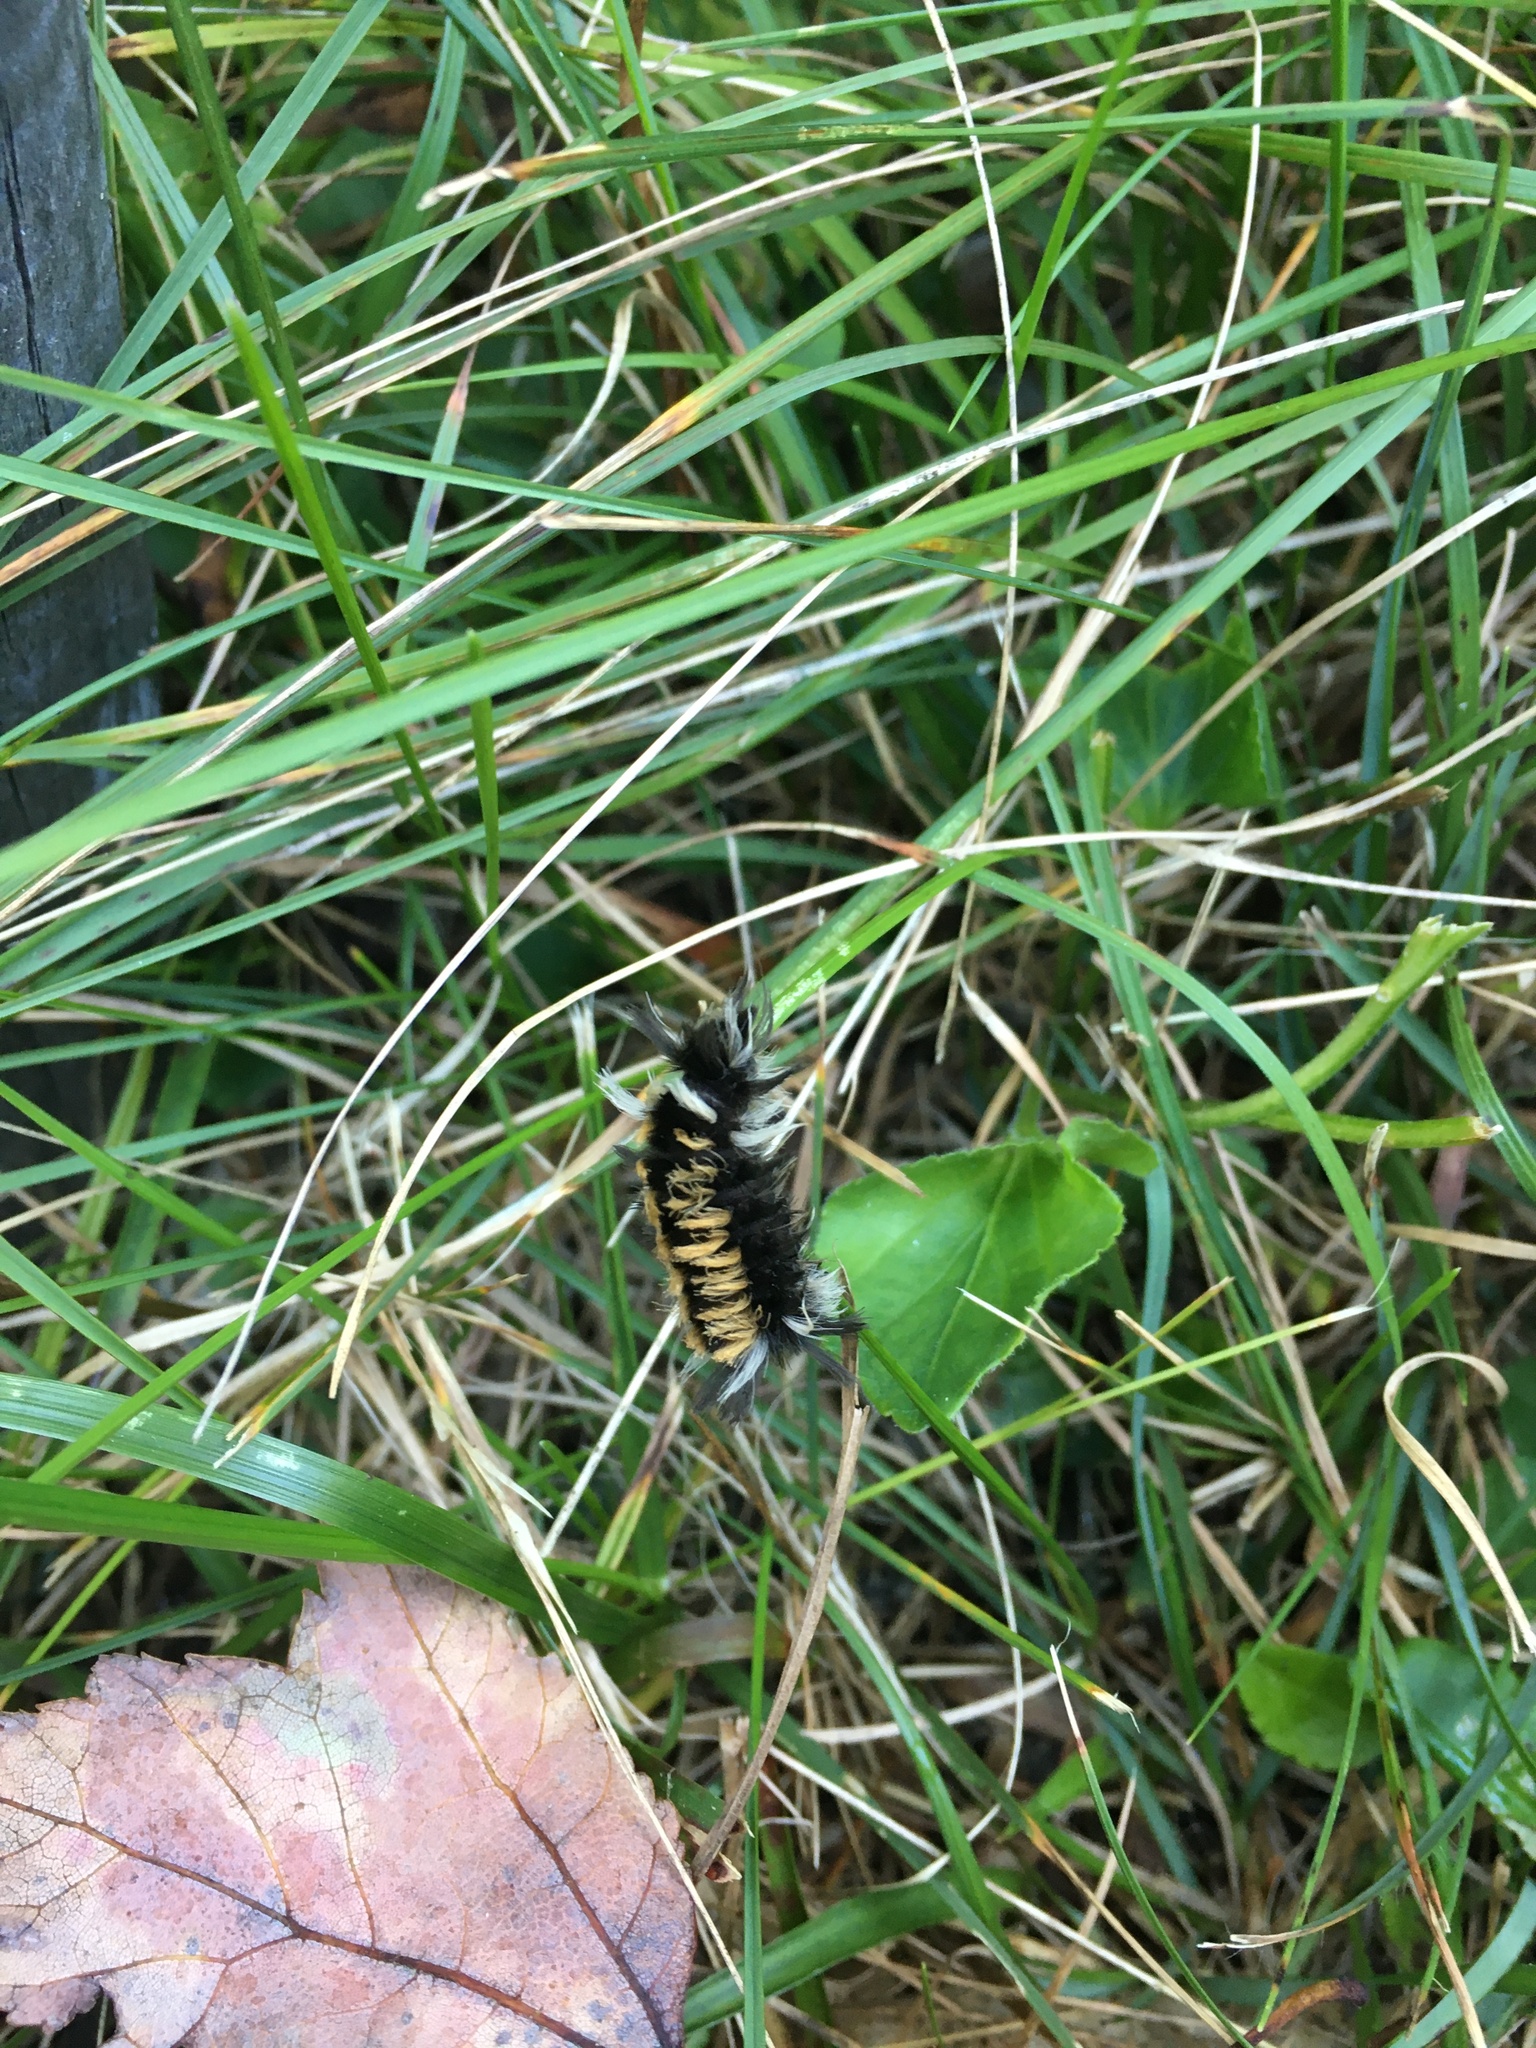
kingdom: Animalia
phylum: Arthropoda
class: Insecta
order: Lepidoptera
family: Erebidae
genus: Euchaetes
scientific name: Euchaetes egle
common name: Milkweed tussock moth
